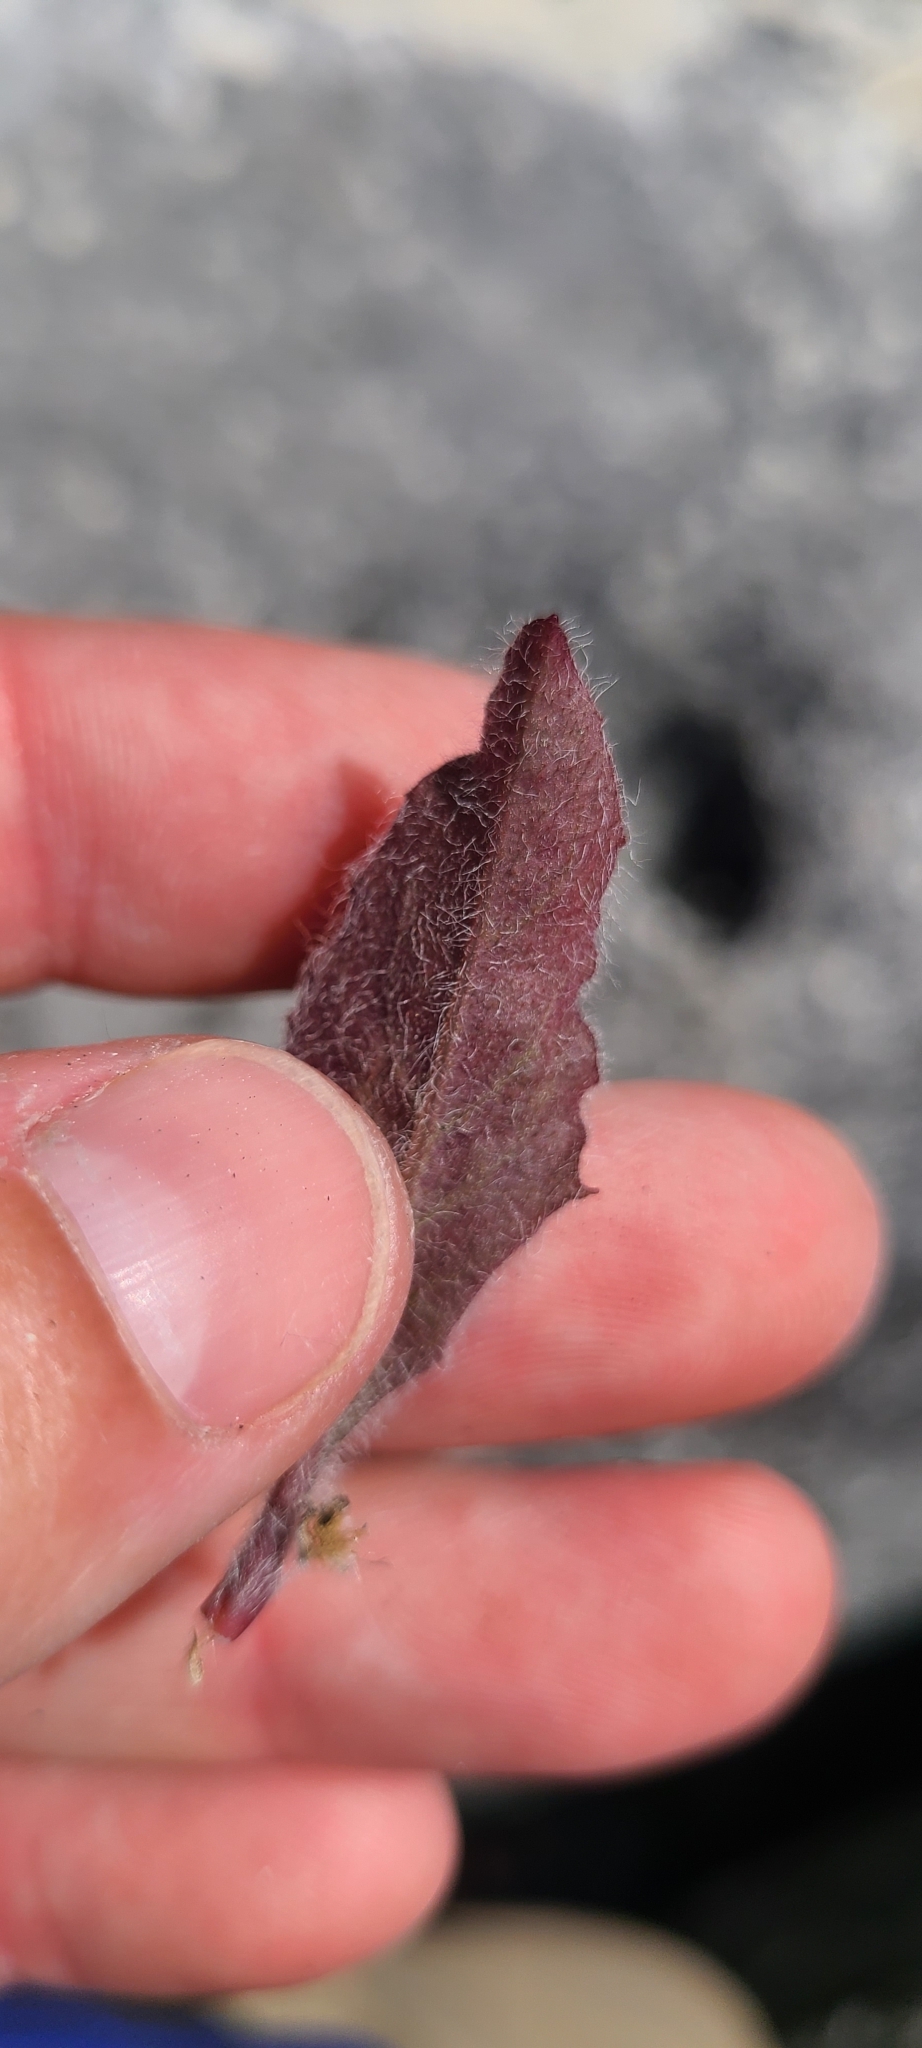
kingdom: Plantae
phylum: Tracheophyta
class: Magnoliopsida
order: Asterales
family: Asteraceae
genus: Hieracium
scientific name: Hieracium lepidulum
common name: Irregular-toothed hawkweed
